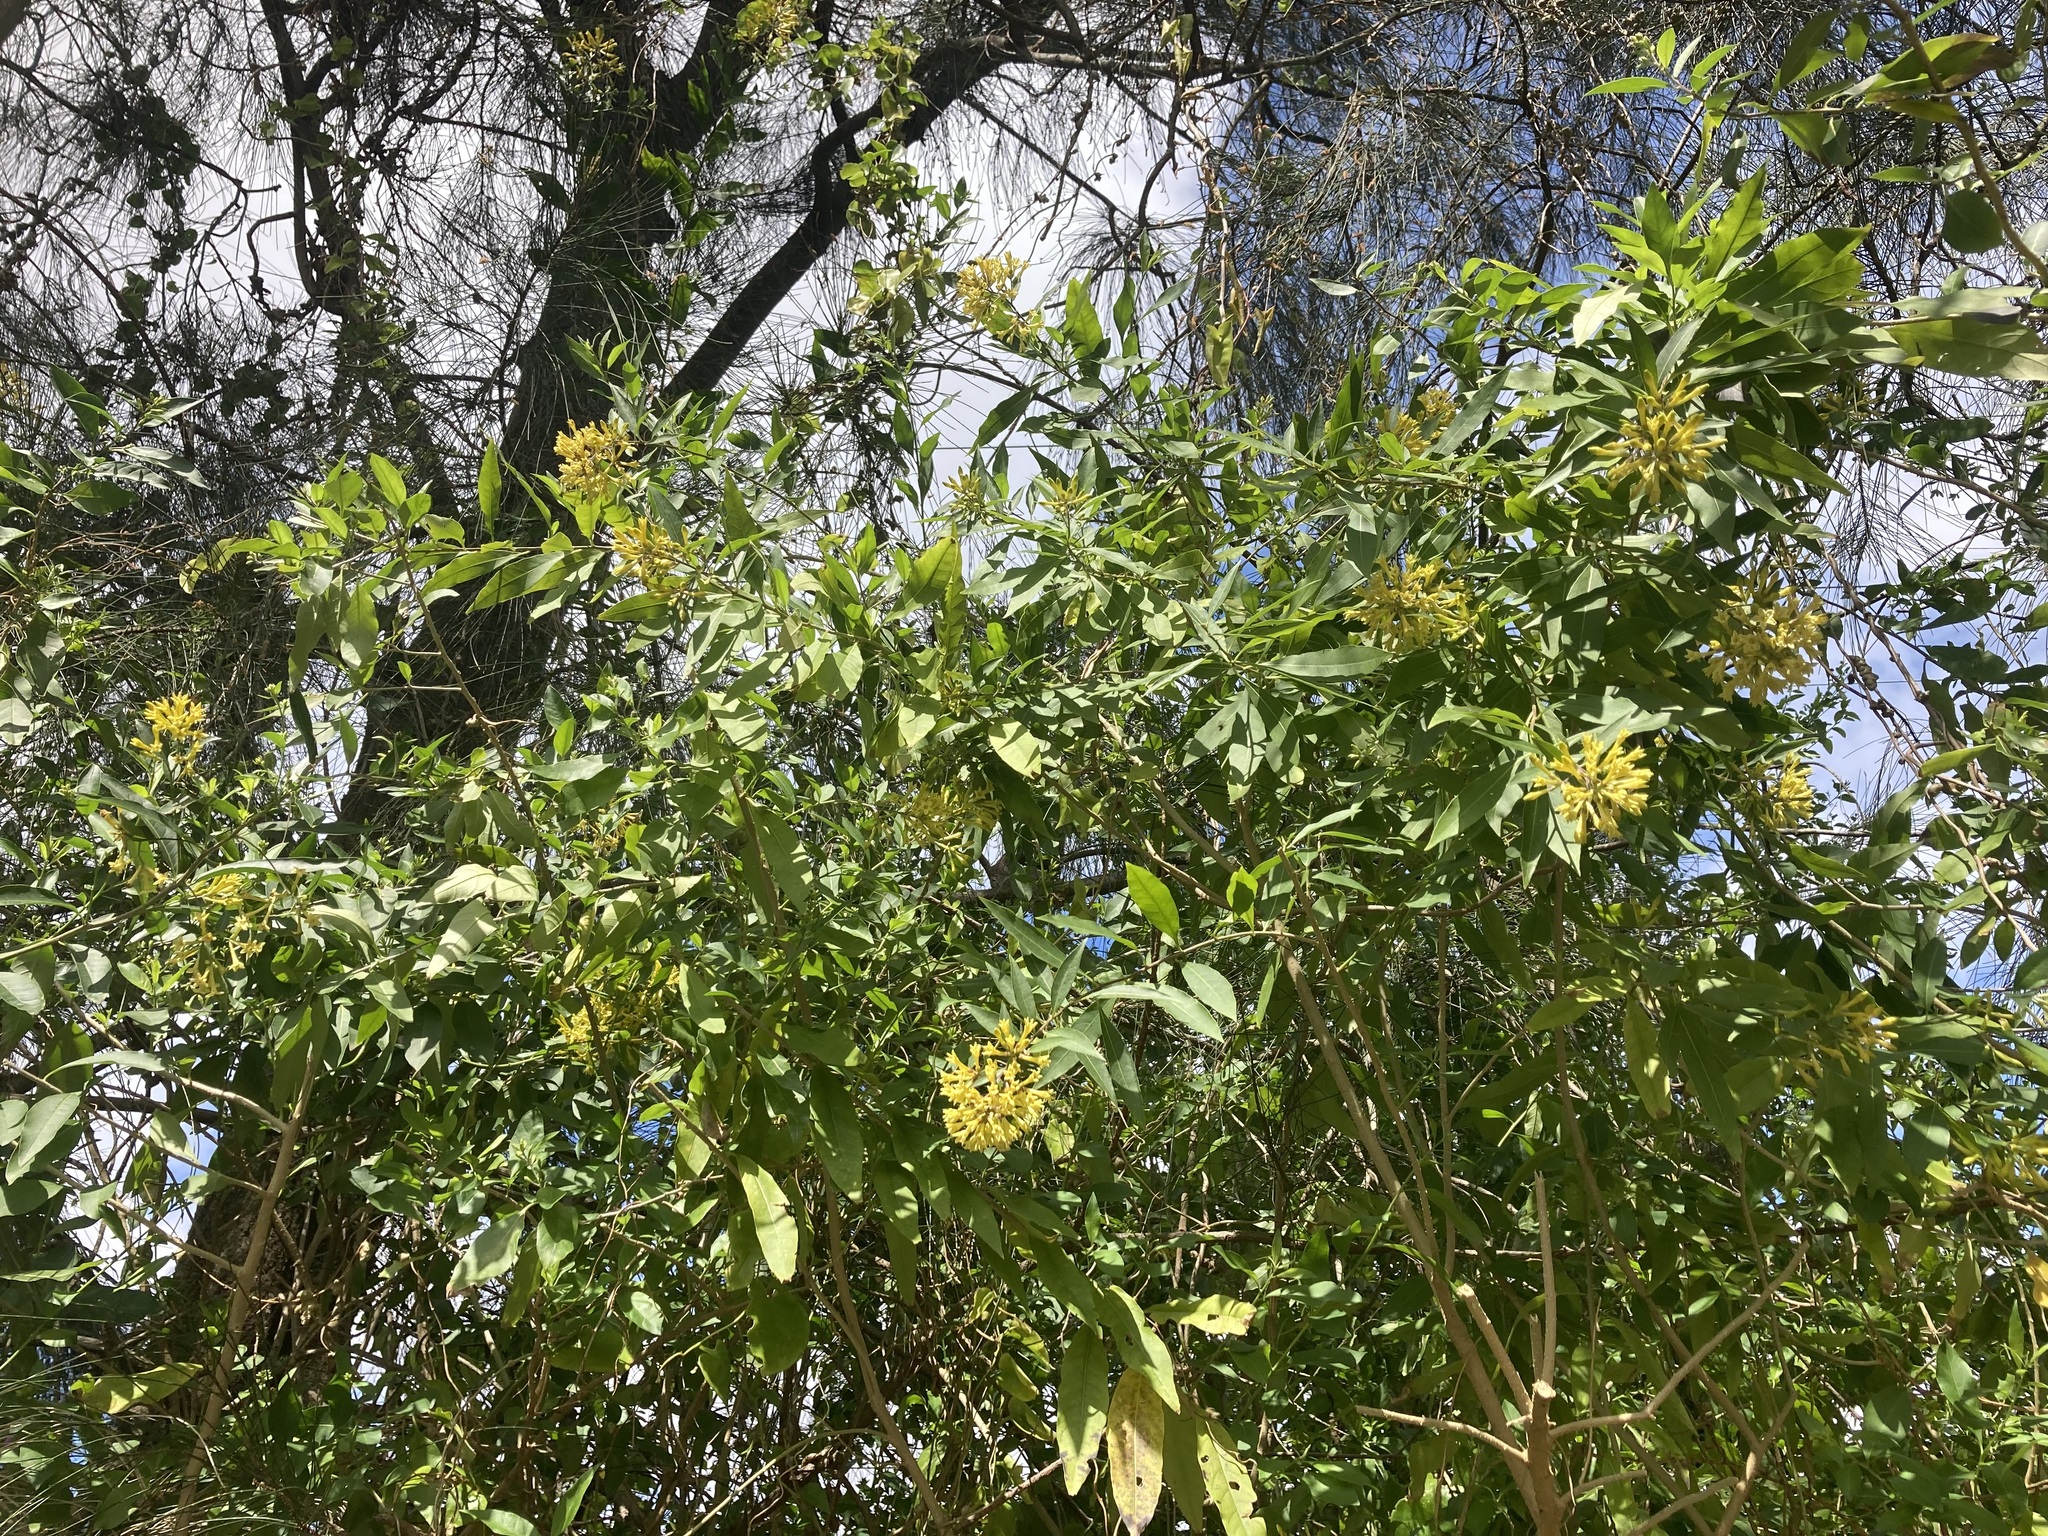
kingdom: Plantae
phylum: Tracheophyta
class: Magnoliopsida
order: Solanales
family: Solanaceae
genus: Cestrum
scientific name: Cestrum parqui
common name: Chilean cestrum
